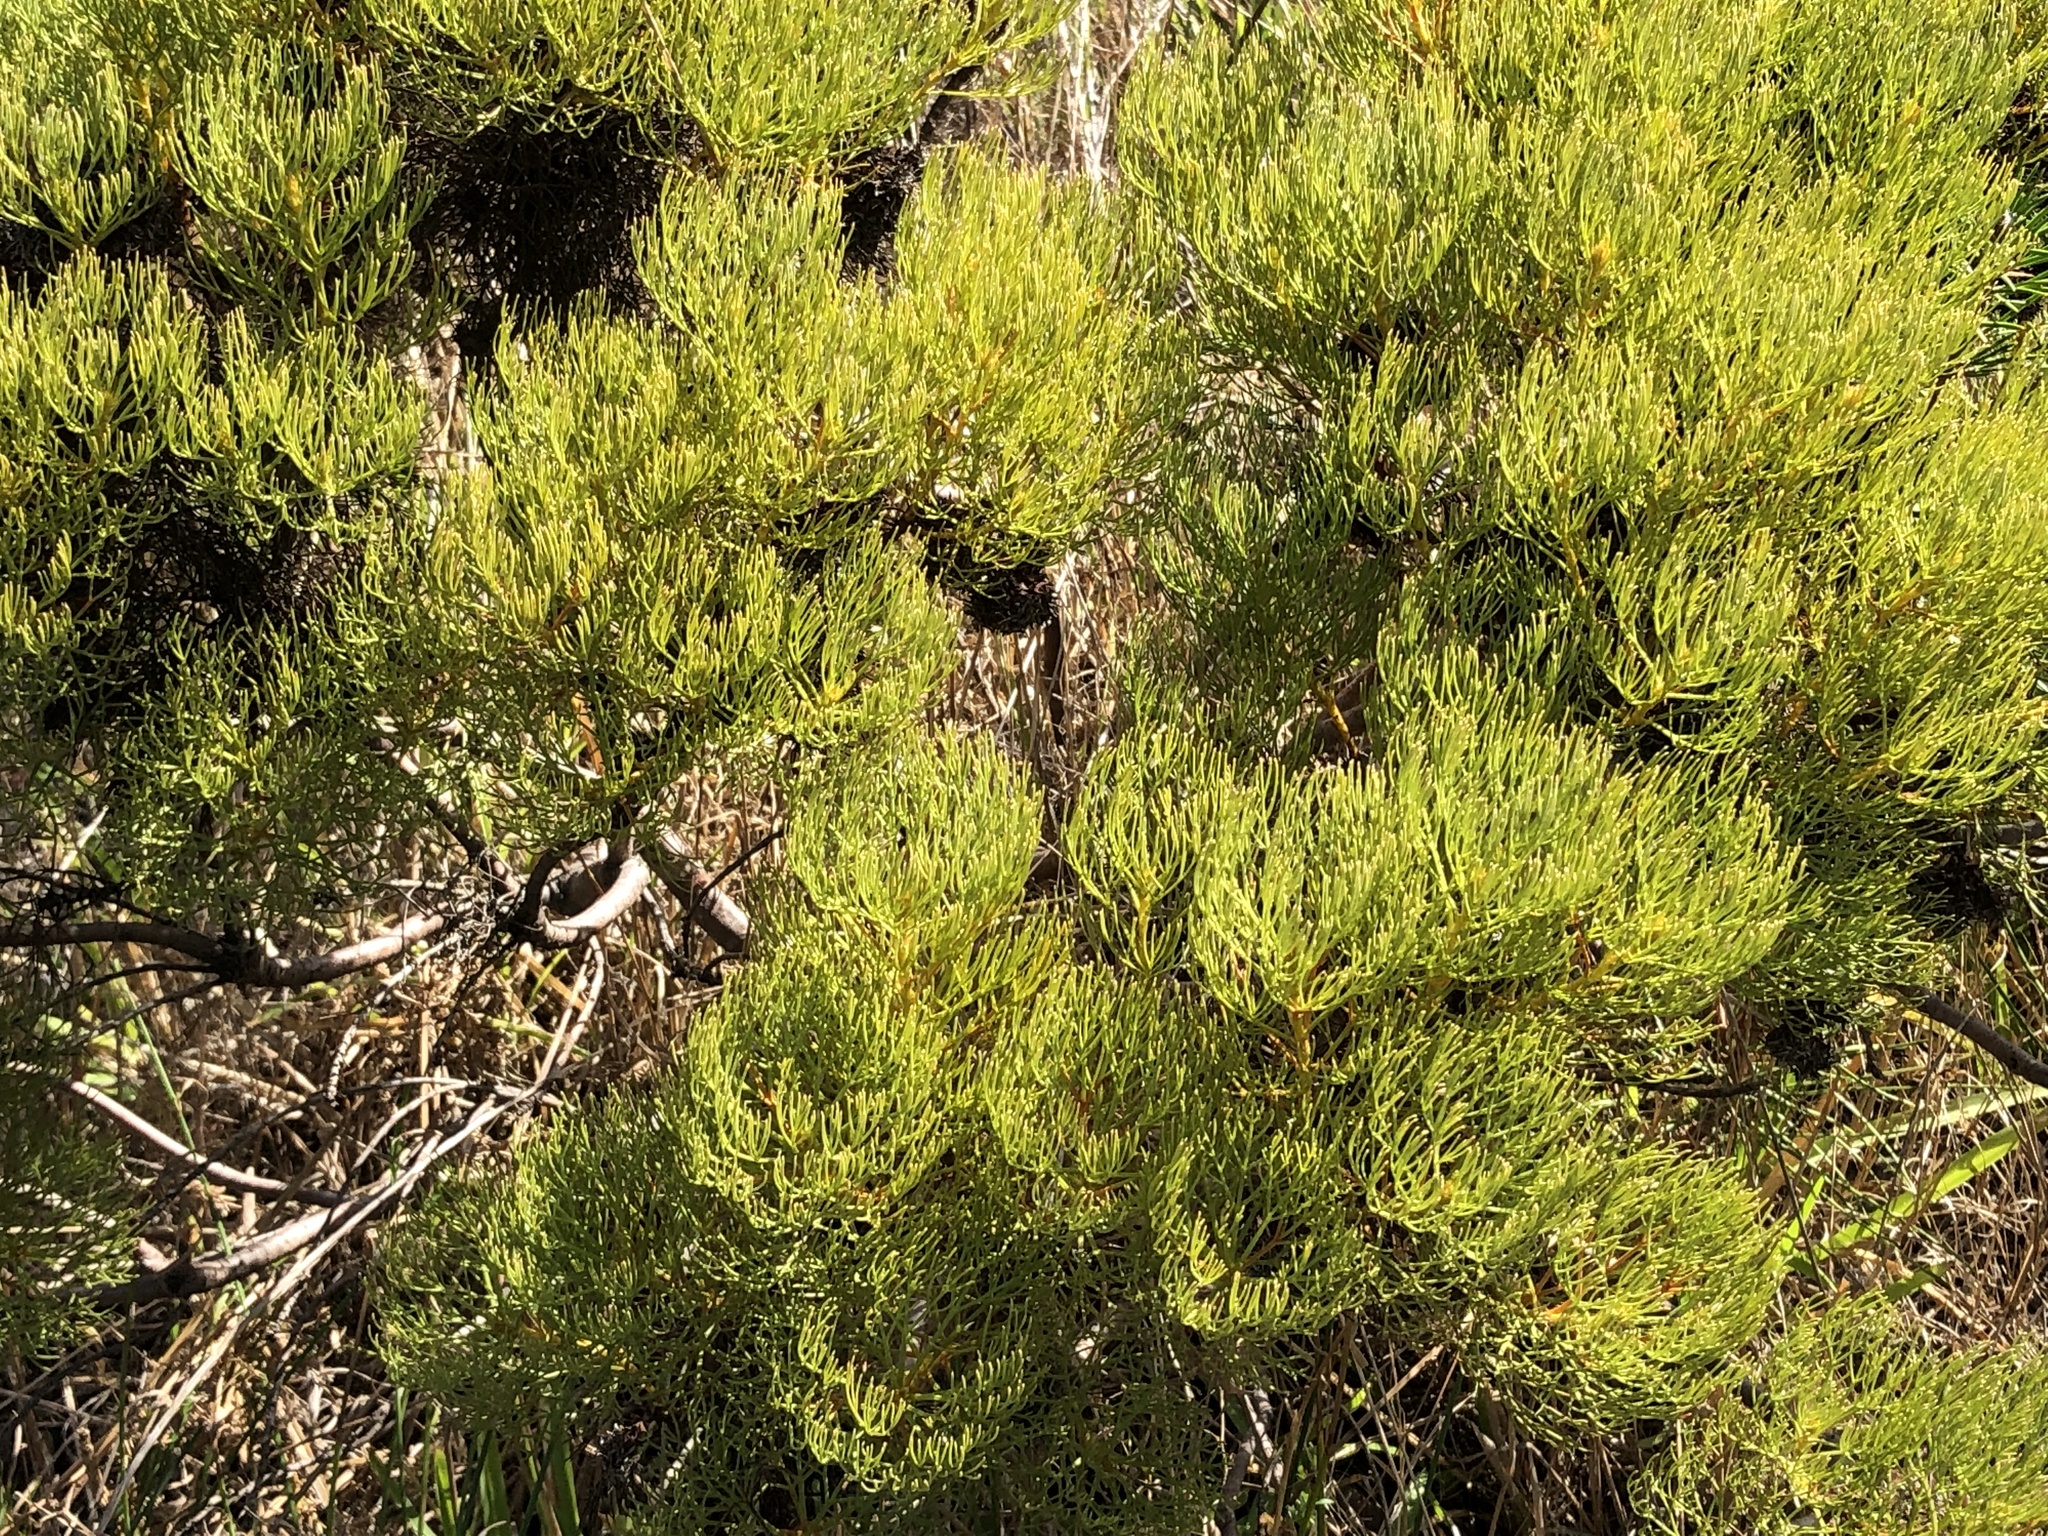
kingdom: Plantae
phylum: Tracheophyta
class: Magnoliopsida
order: Proteales
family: Proteaceae
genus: Serruria
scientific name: Serruria glomerata
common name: Cluster spiderhead
